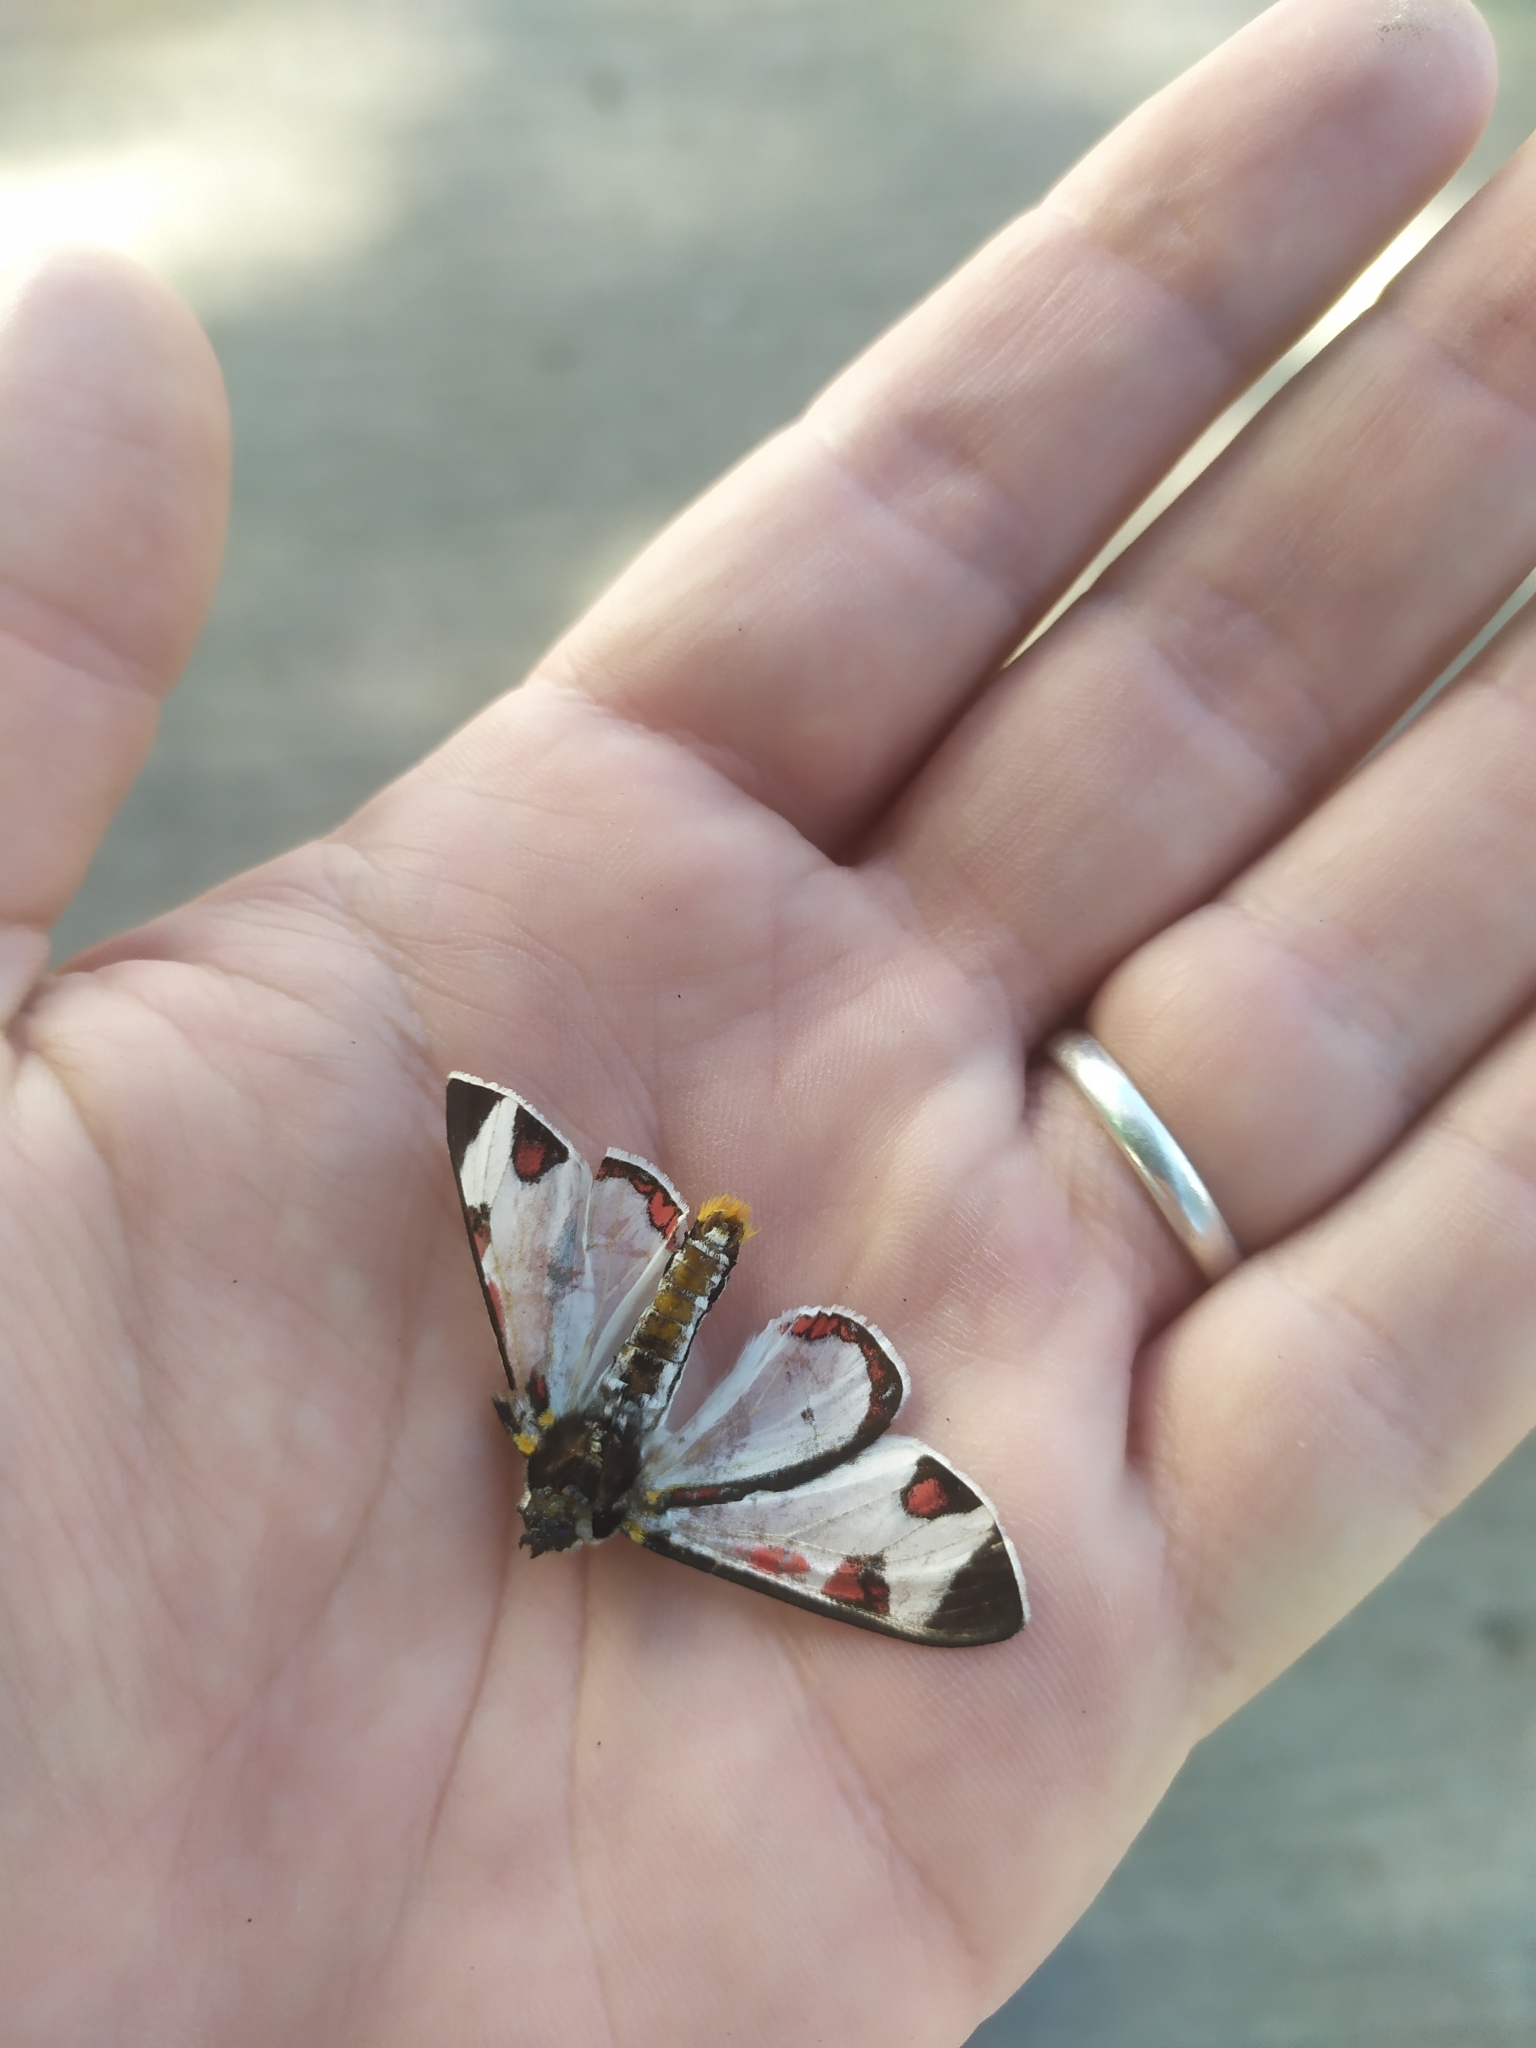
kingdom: Animalia
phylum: Arthropoda
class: Insecta
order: Lepidoptera
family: Erebidae
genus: Dysschema
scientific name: Dysschema centenaria
